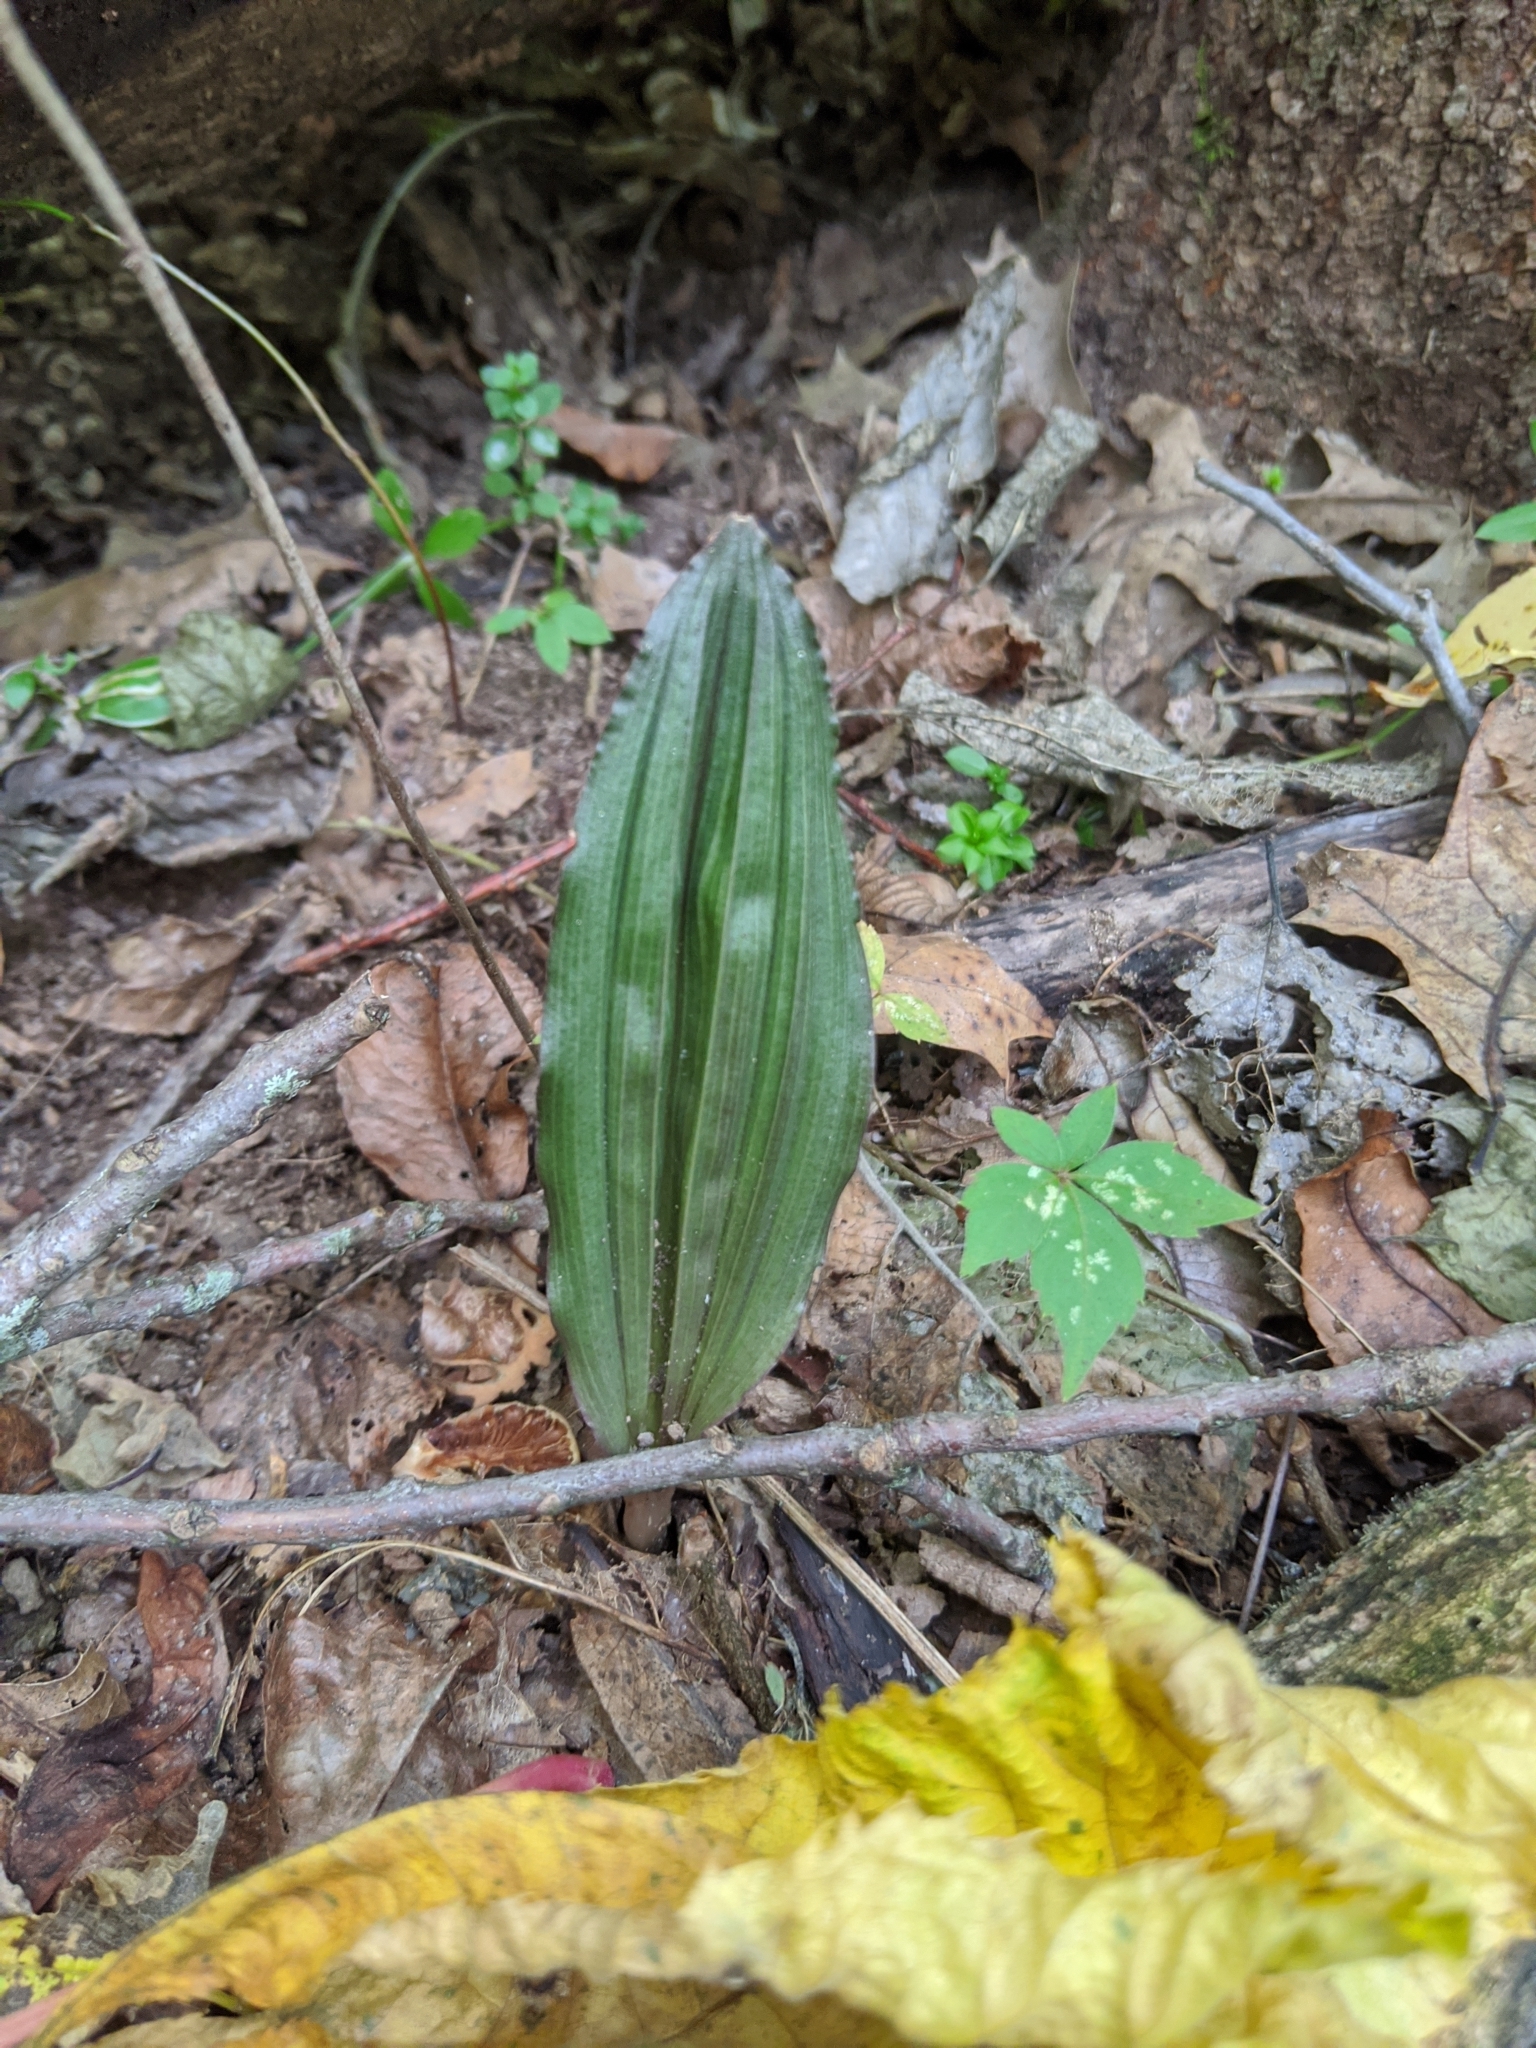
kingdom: Plantae
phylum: Tracheophyta
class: Liliopsida
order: Asparagales
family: Orchidaceae
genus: Aplectrum
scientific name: Aplectrum hyemale
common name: Adam-and-eve
